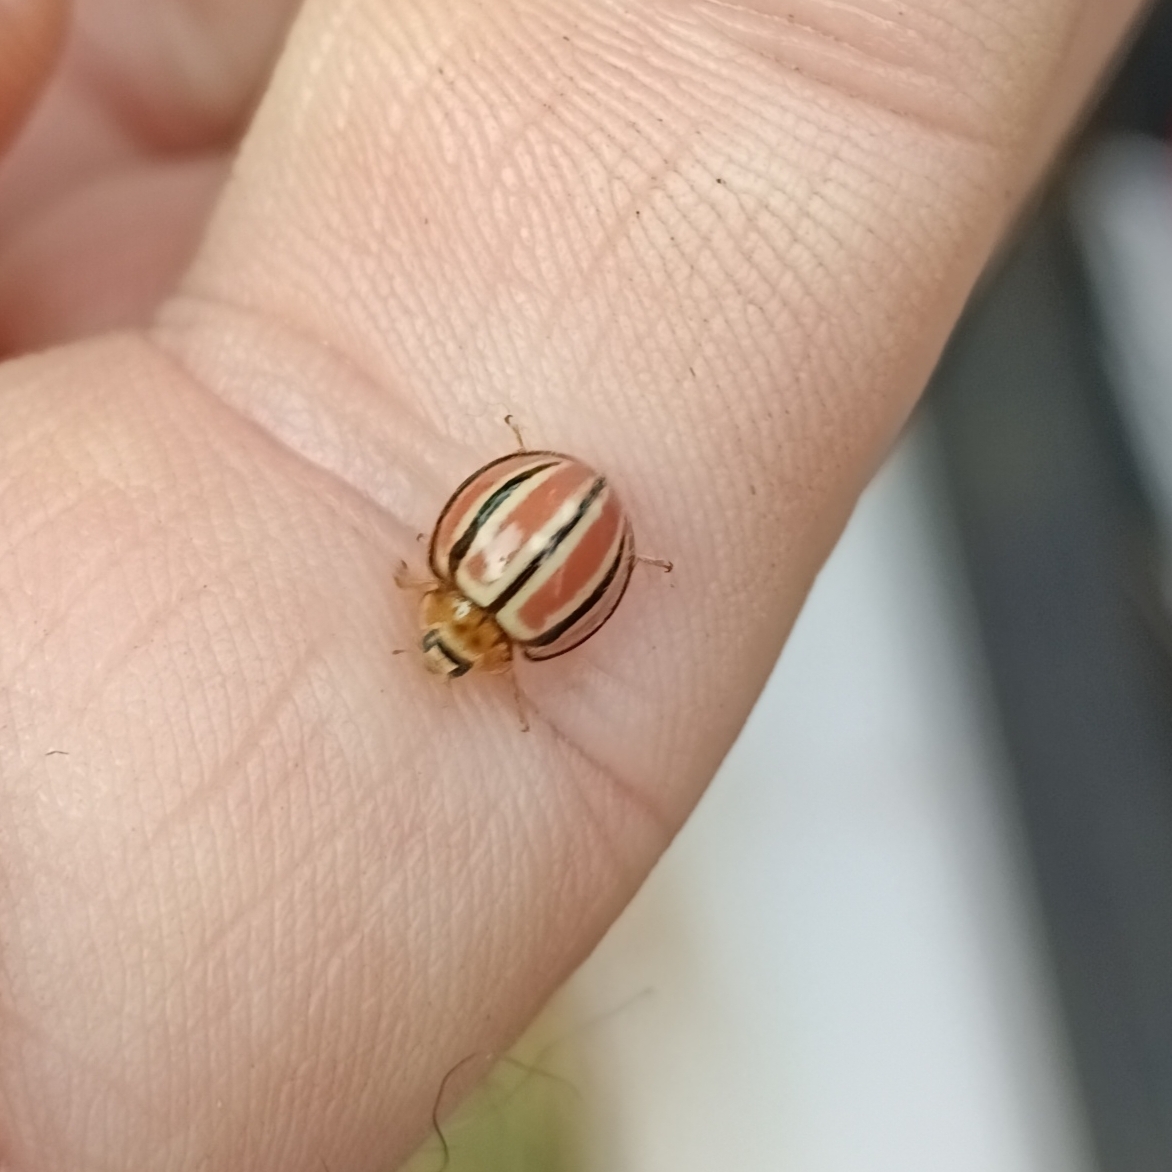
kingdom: Animalia
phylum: Arthropoda
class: Insecta
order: Coleoptera
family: Coccinellidae
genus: Declivitata
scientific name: Declivitata
